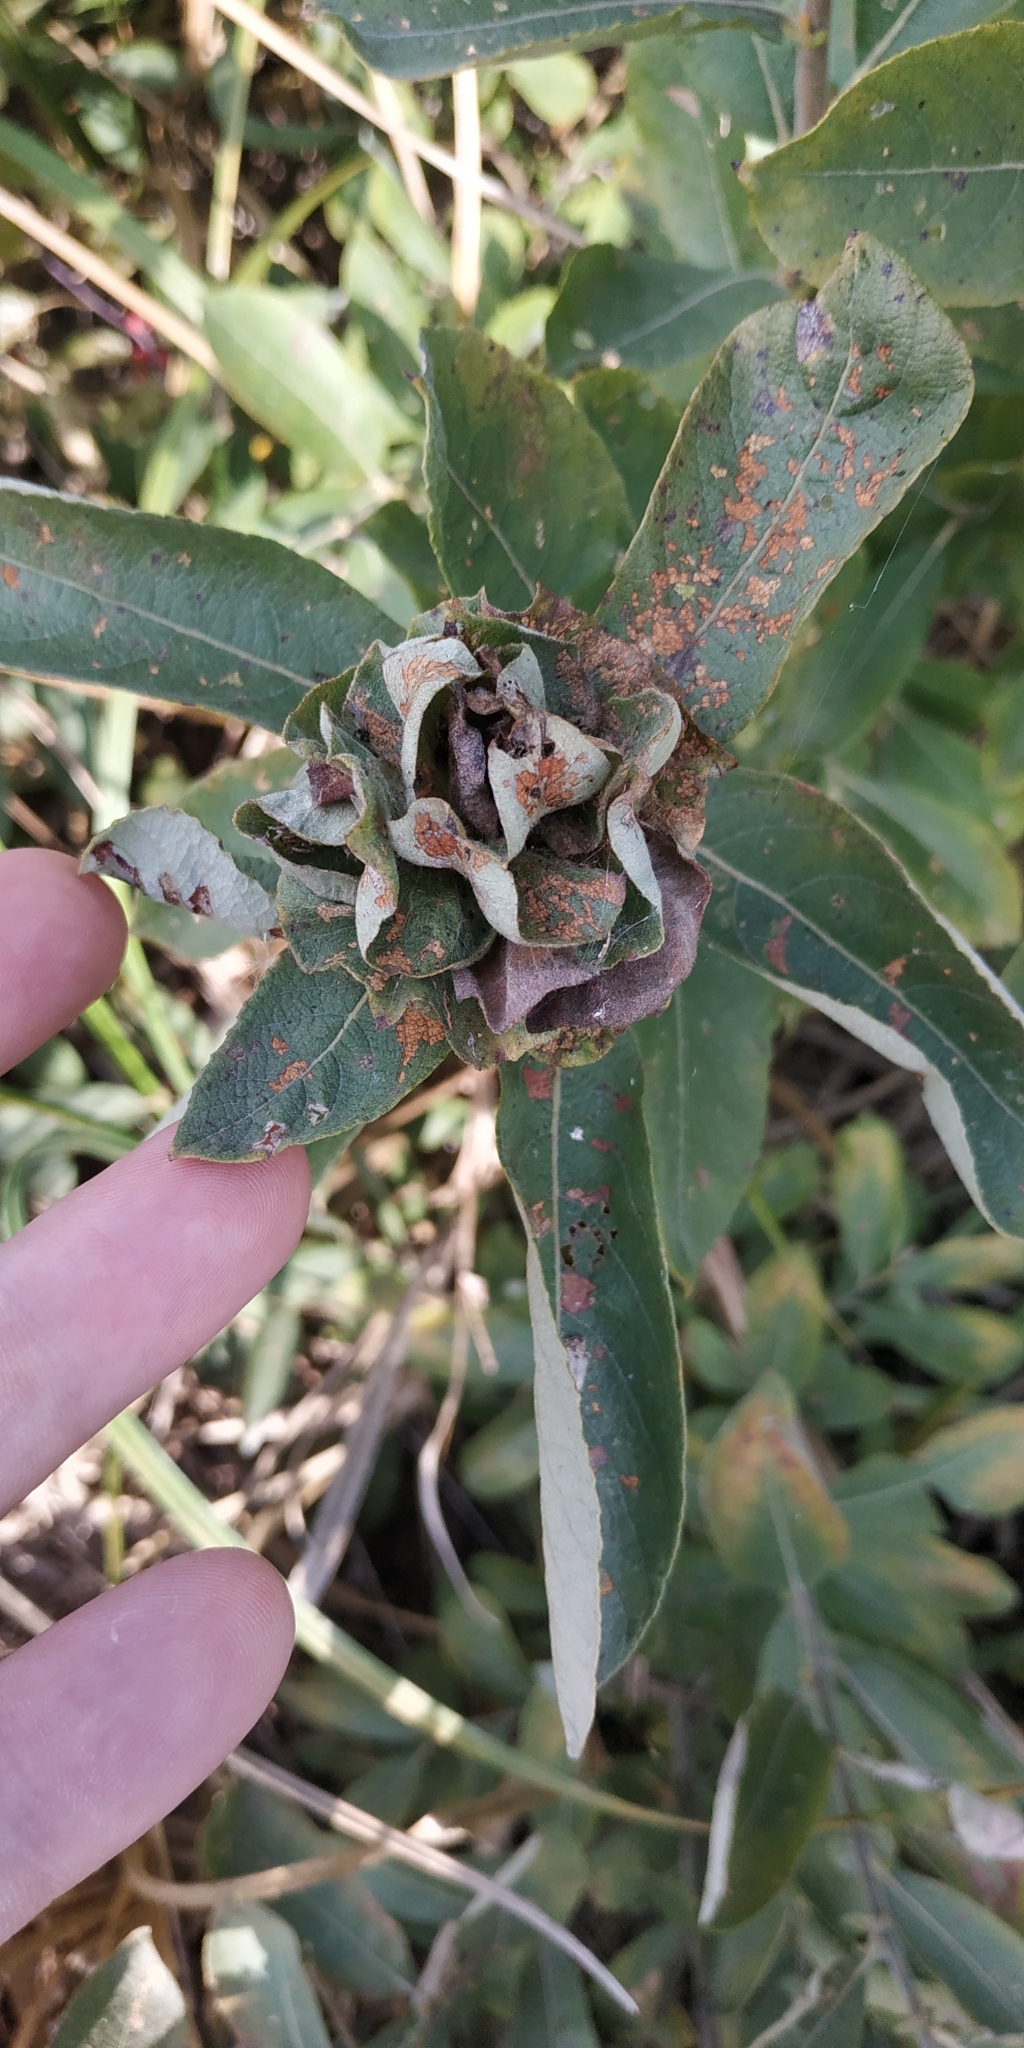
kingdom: Animalia
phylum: Arthropoda
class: Insecta
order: Diptera
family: Cecidomyiidae
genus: Rabdophaga
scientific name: Rabdophaga rosaria
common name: Willow rose gall midge
